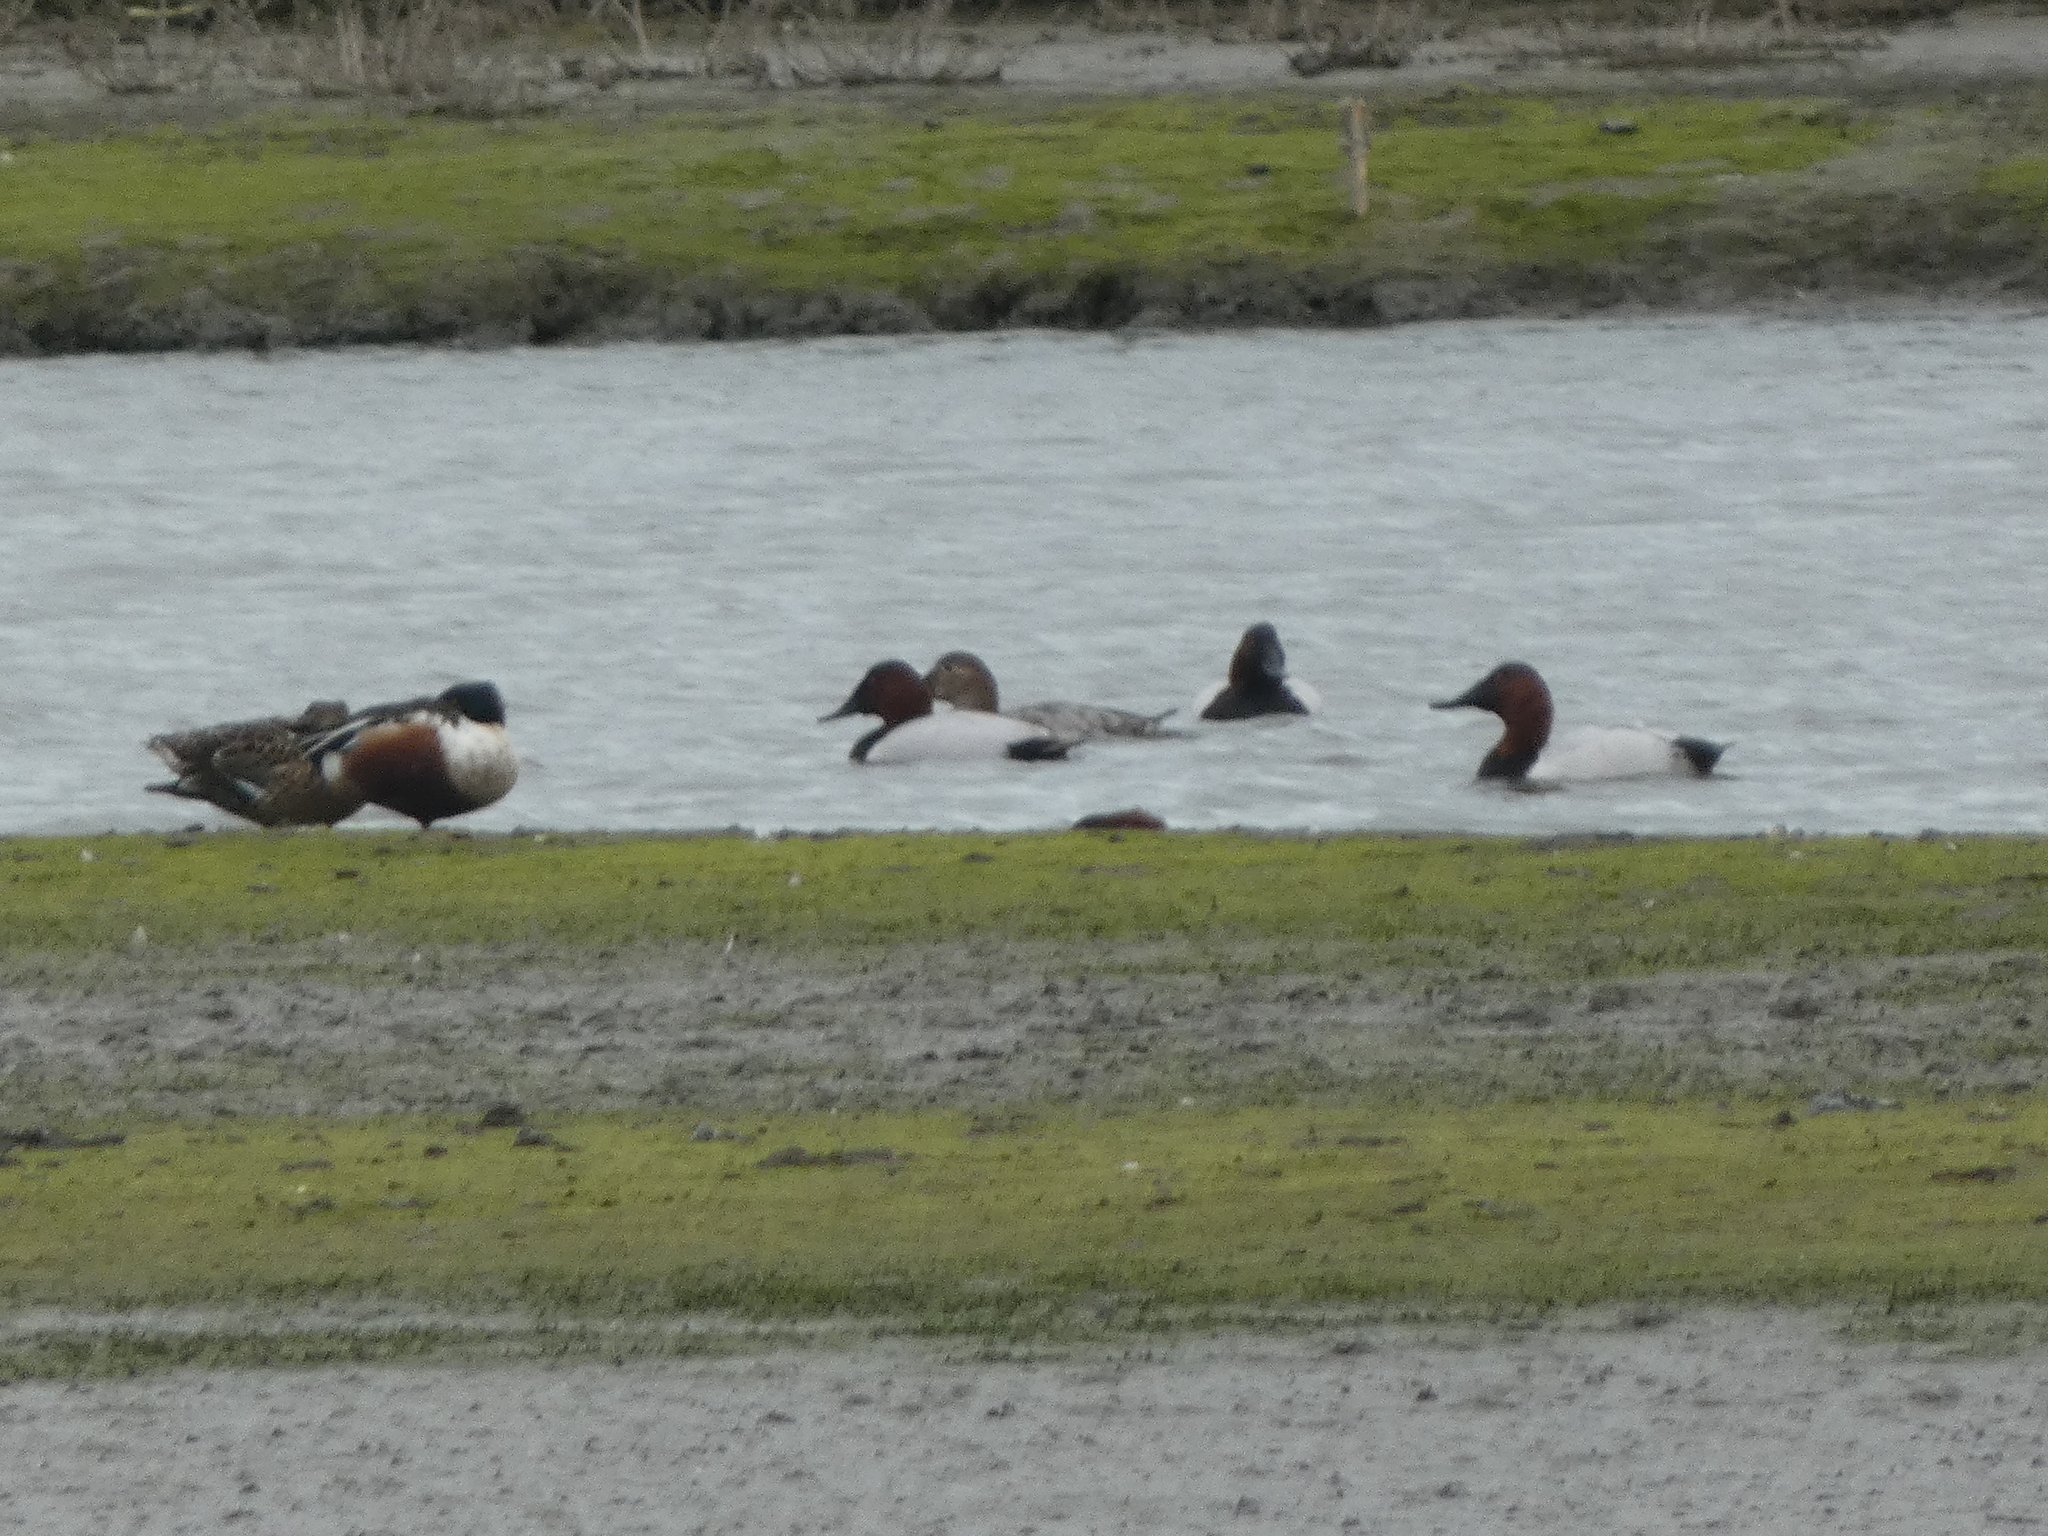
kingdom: Animalia
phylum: Chordata
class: Aves
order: Anseriformes
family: Anatidae
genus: Aythya
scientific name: Aythya valisineria
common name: Canvasback
